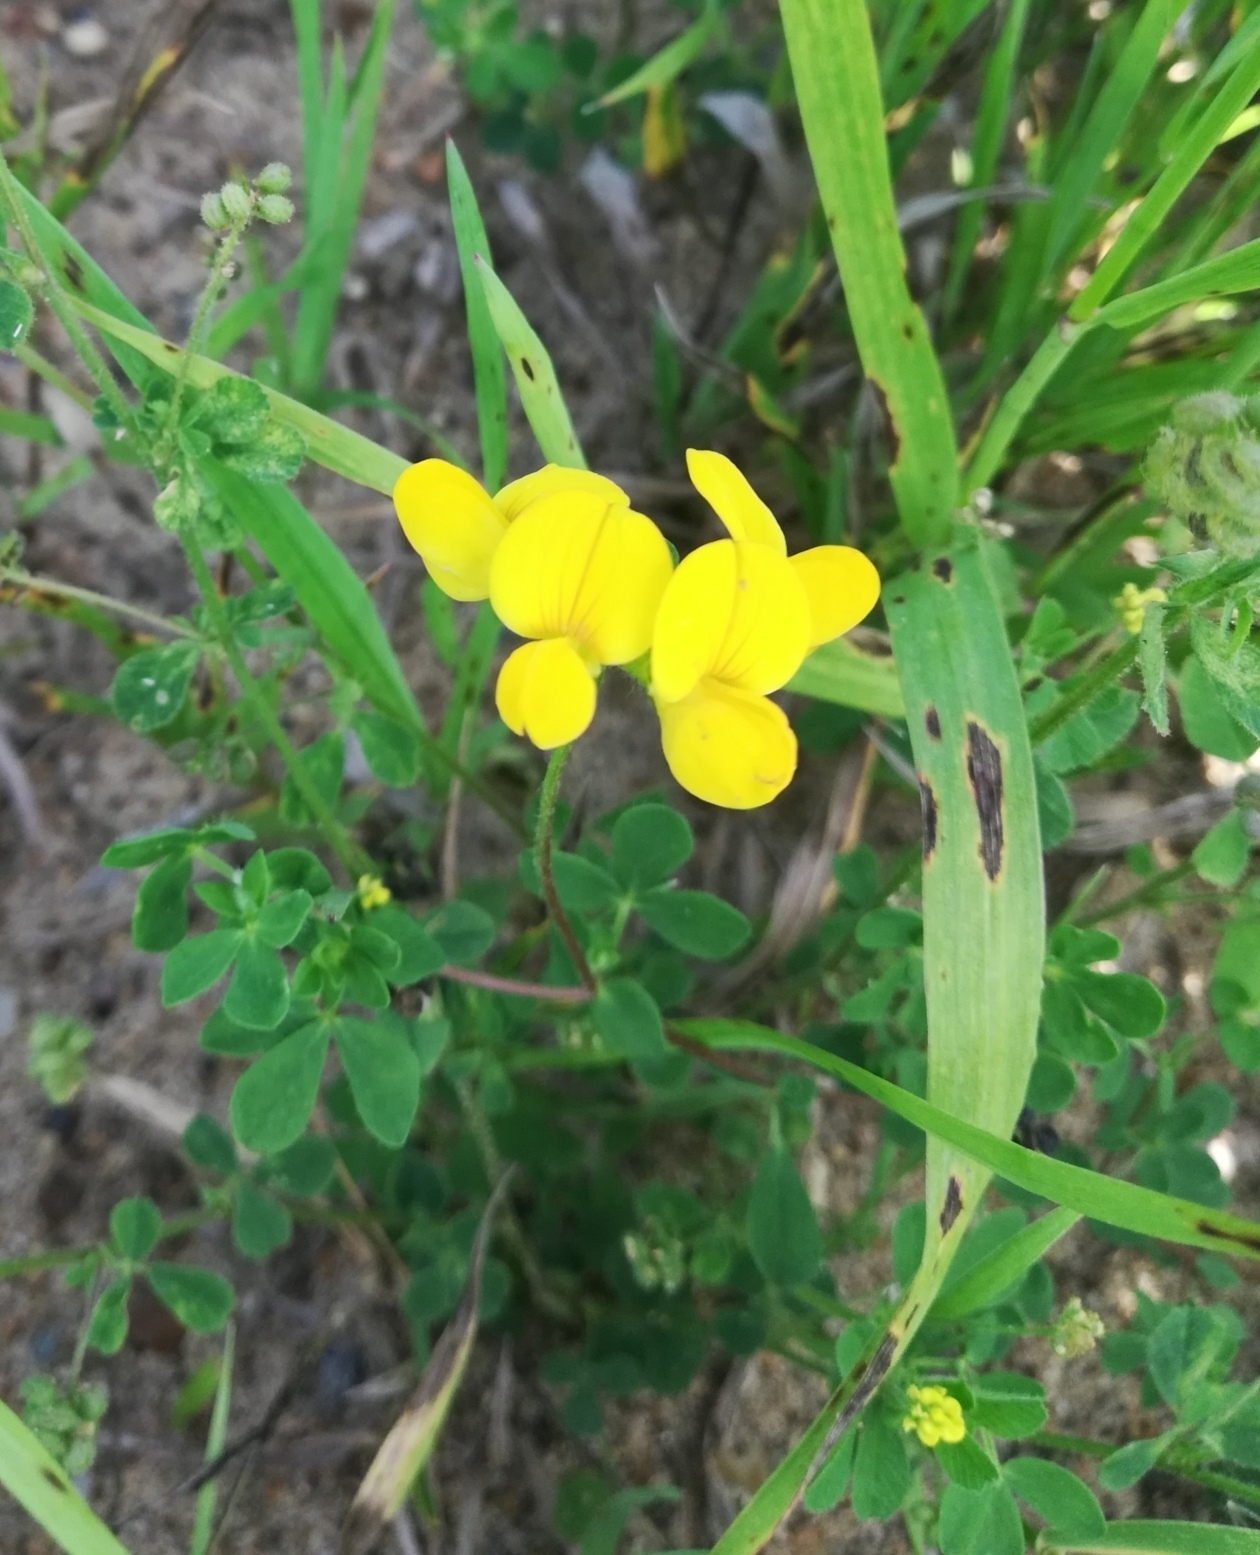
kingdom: Plantae
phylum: Tracheophyta
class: Magnoliopsida
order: Fabales
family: Fabaceae
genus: Lotus
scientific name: Lotus corniculatus
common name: Common bird's-foot-trefoil
